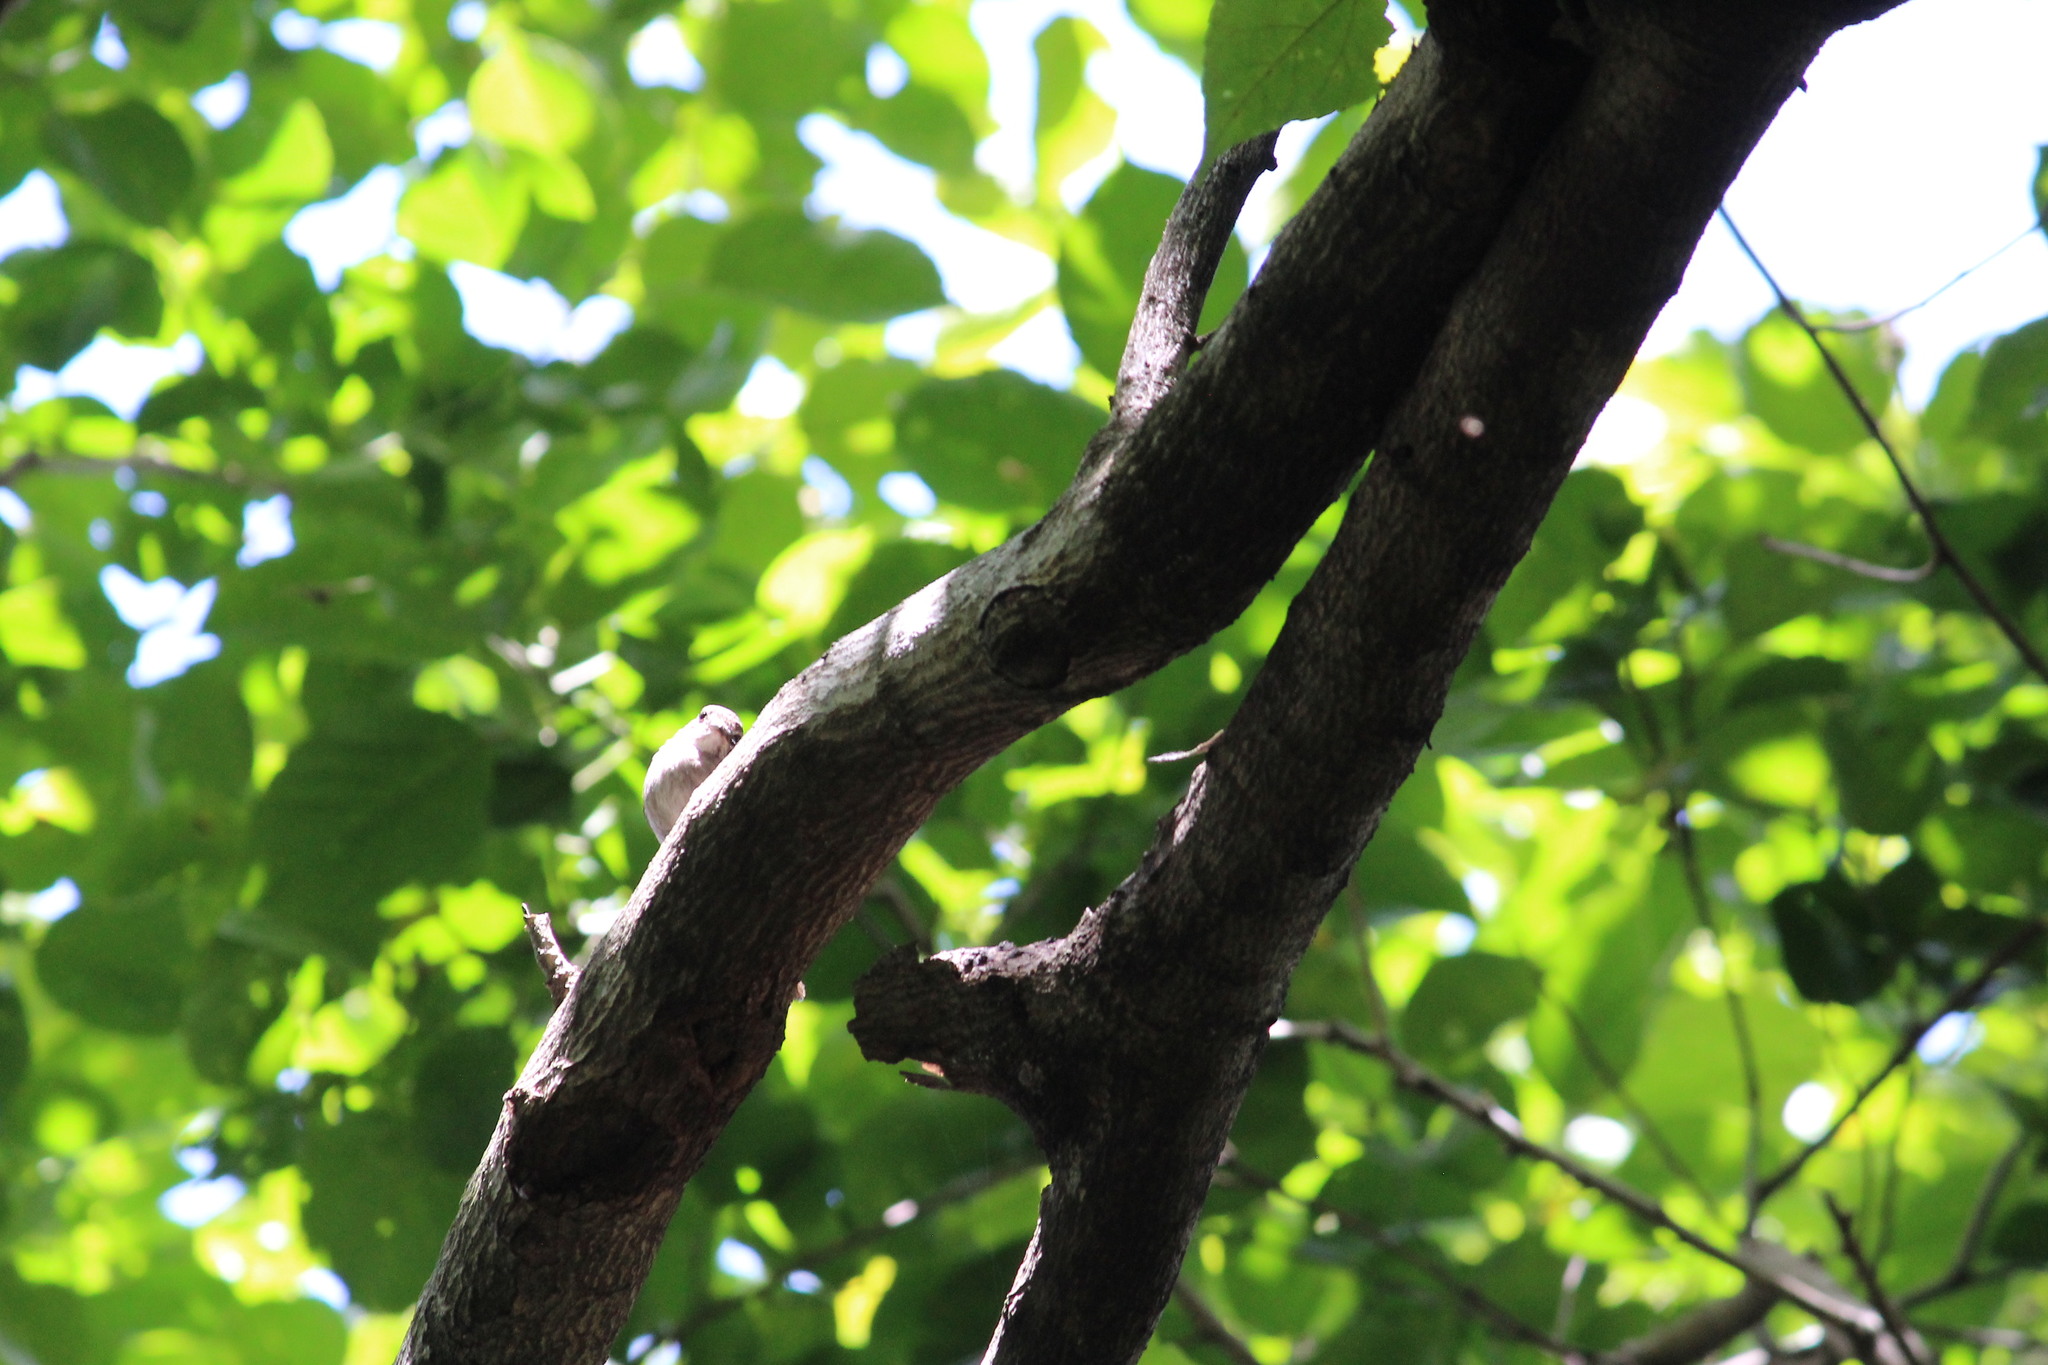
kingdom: Animalia
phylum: Chordata
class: Aves
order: Passeriformes
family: Muscicapidae
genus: Muscicapa
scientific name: Muscicapa adusta
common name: African dusky flycatcher
